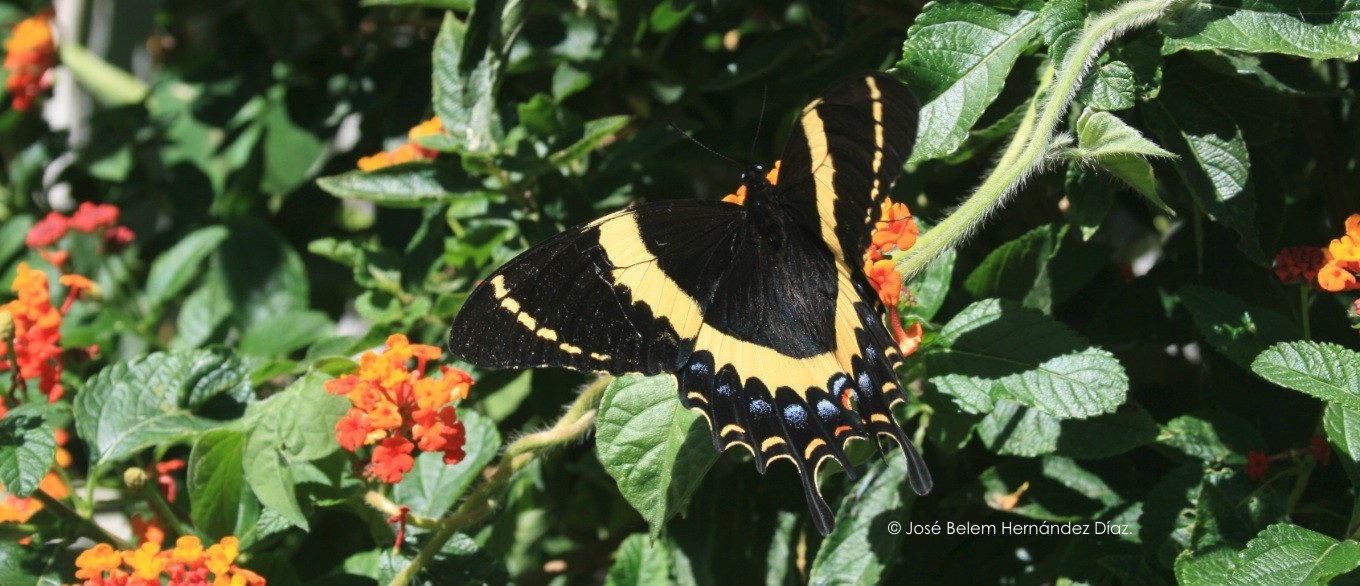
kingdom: Animalia
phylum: Arthropoda
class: Insecta
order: Lepidoptera
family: Papilionidae
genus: Papilio
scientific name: Papilio garamas
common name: Magnificent swallowtail
